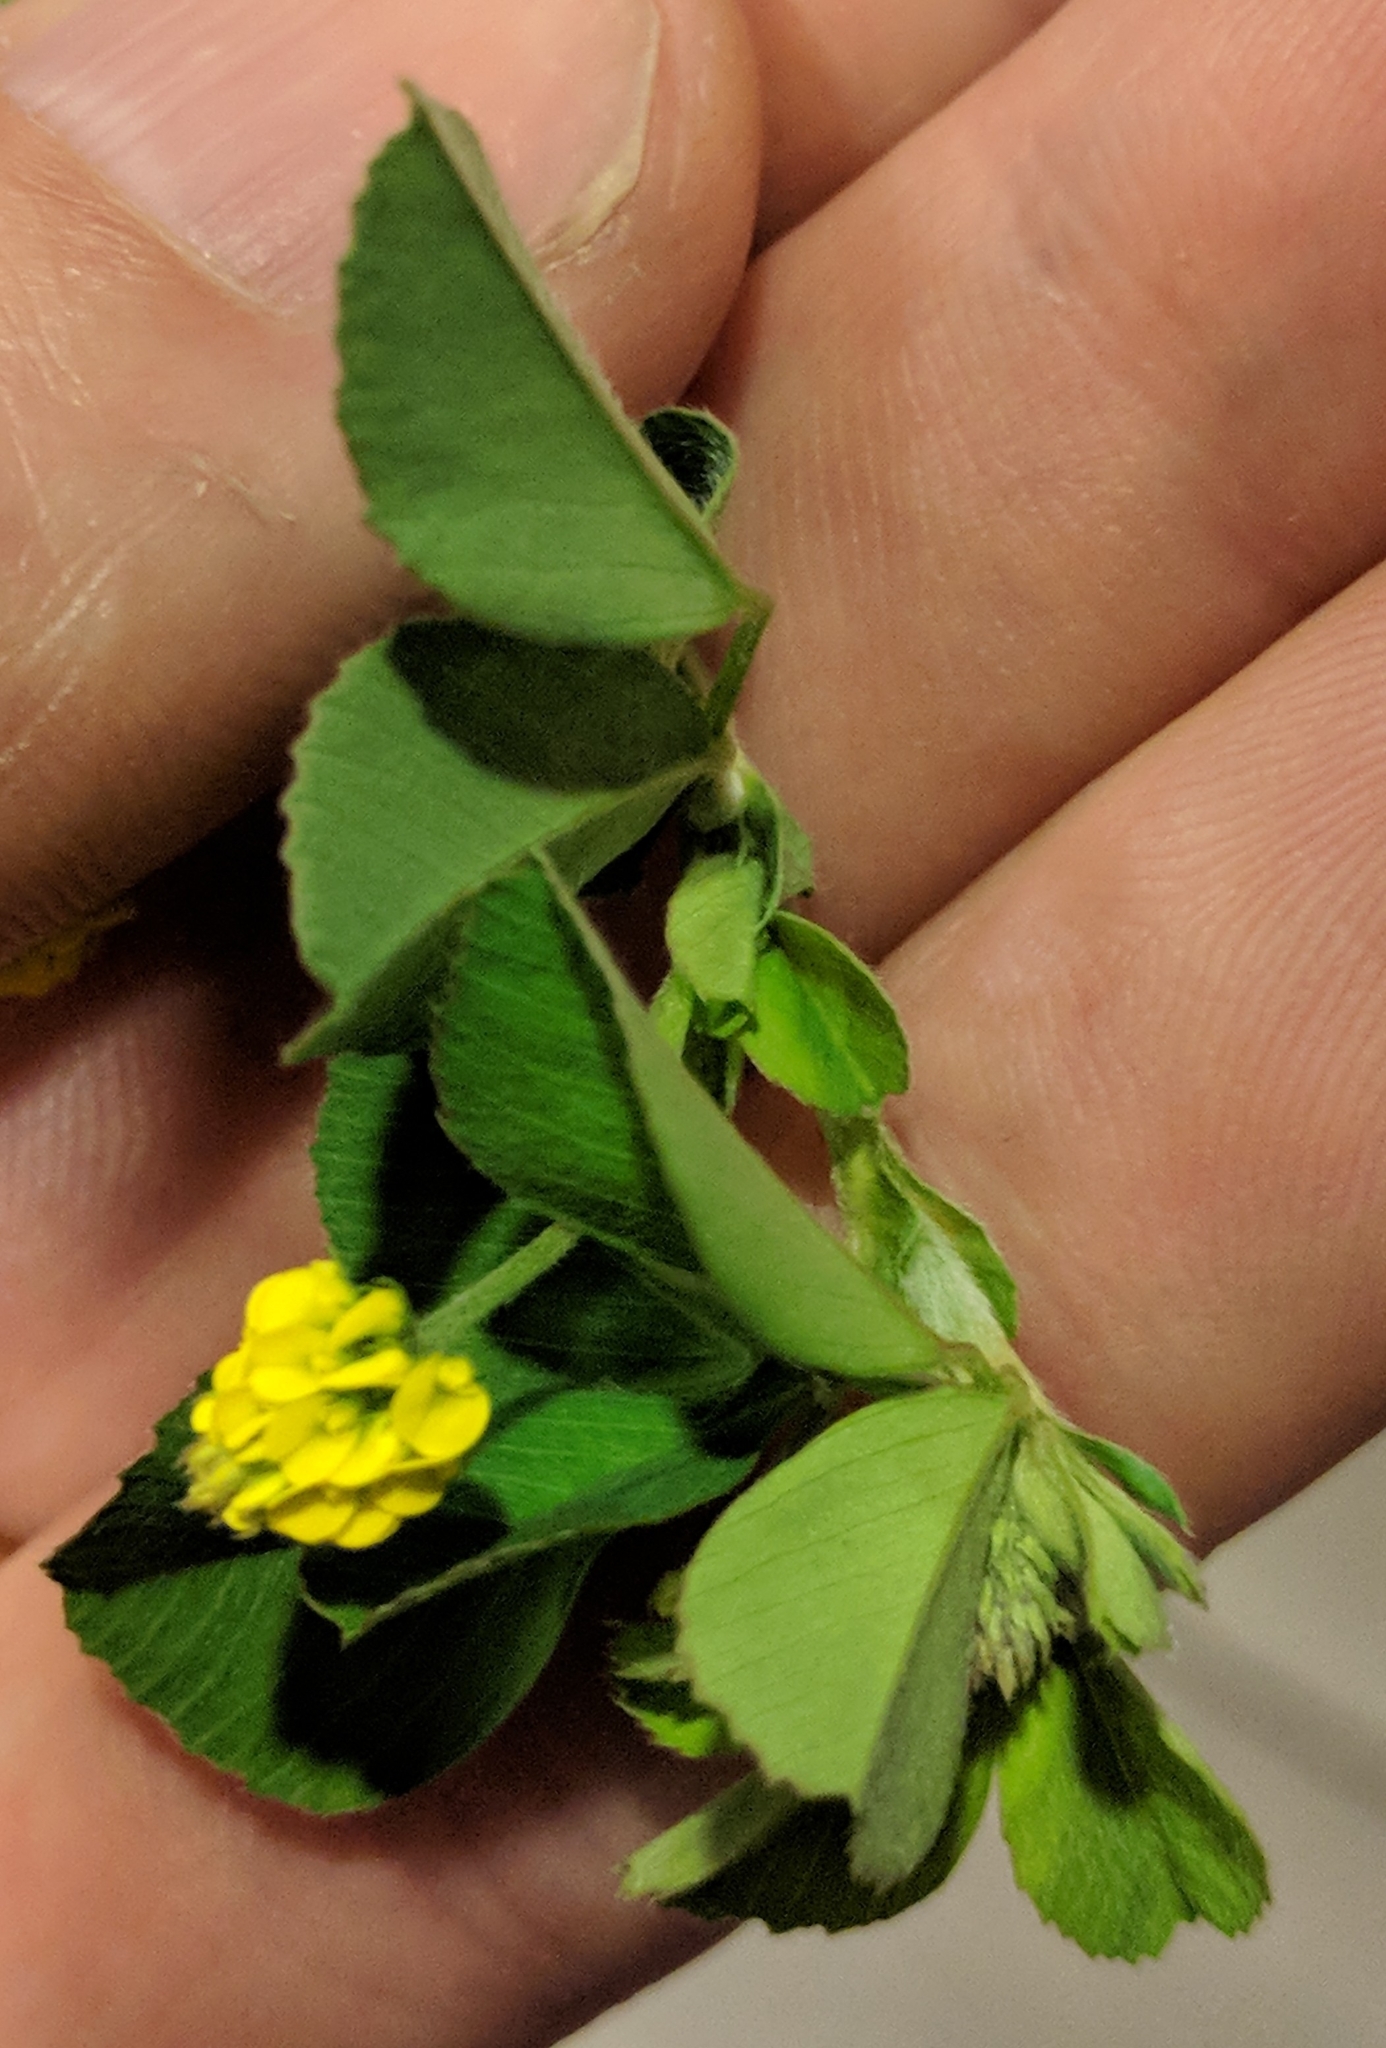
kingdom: Plantae
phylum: Tracheophyta
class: Magnoliopsida
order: Fabales
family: Fabaceae
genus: Medicago
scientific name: Medicago lupulina
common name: Black medick
